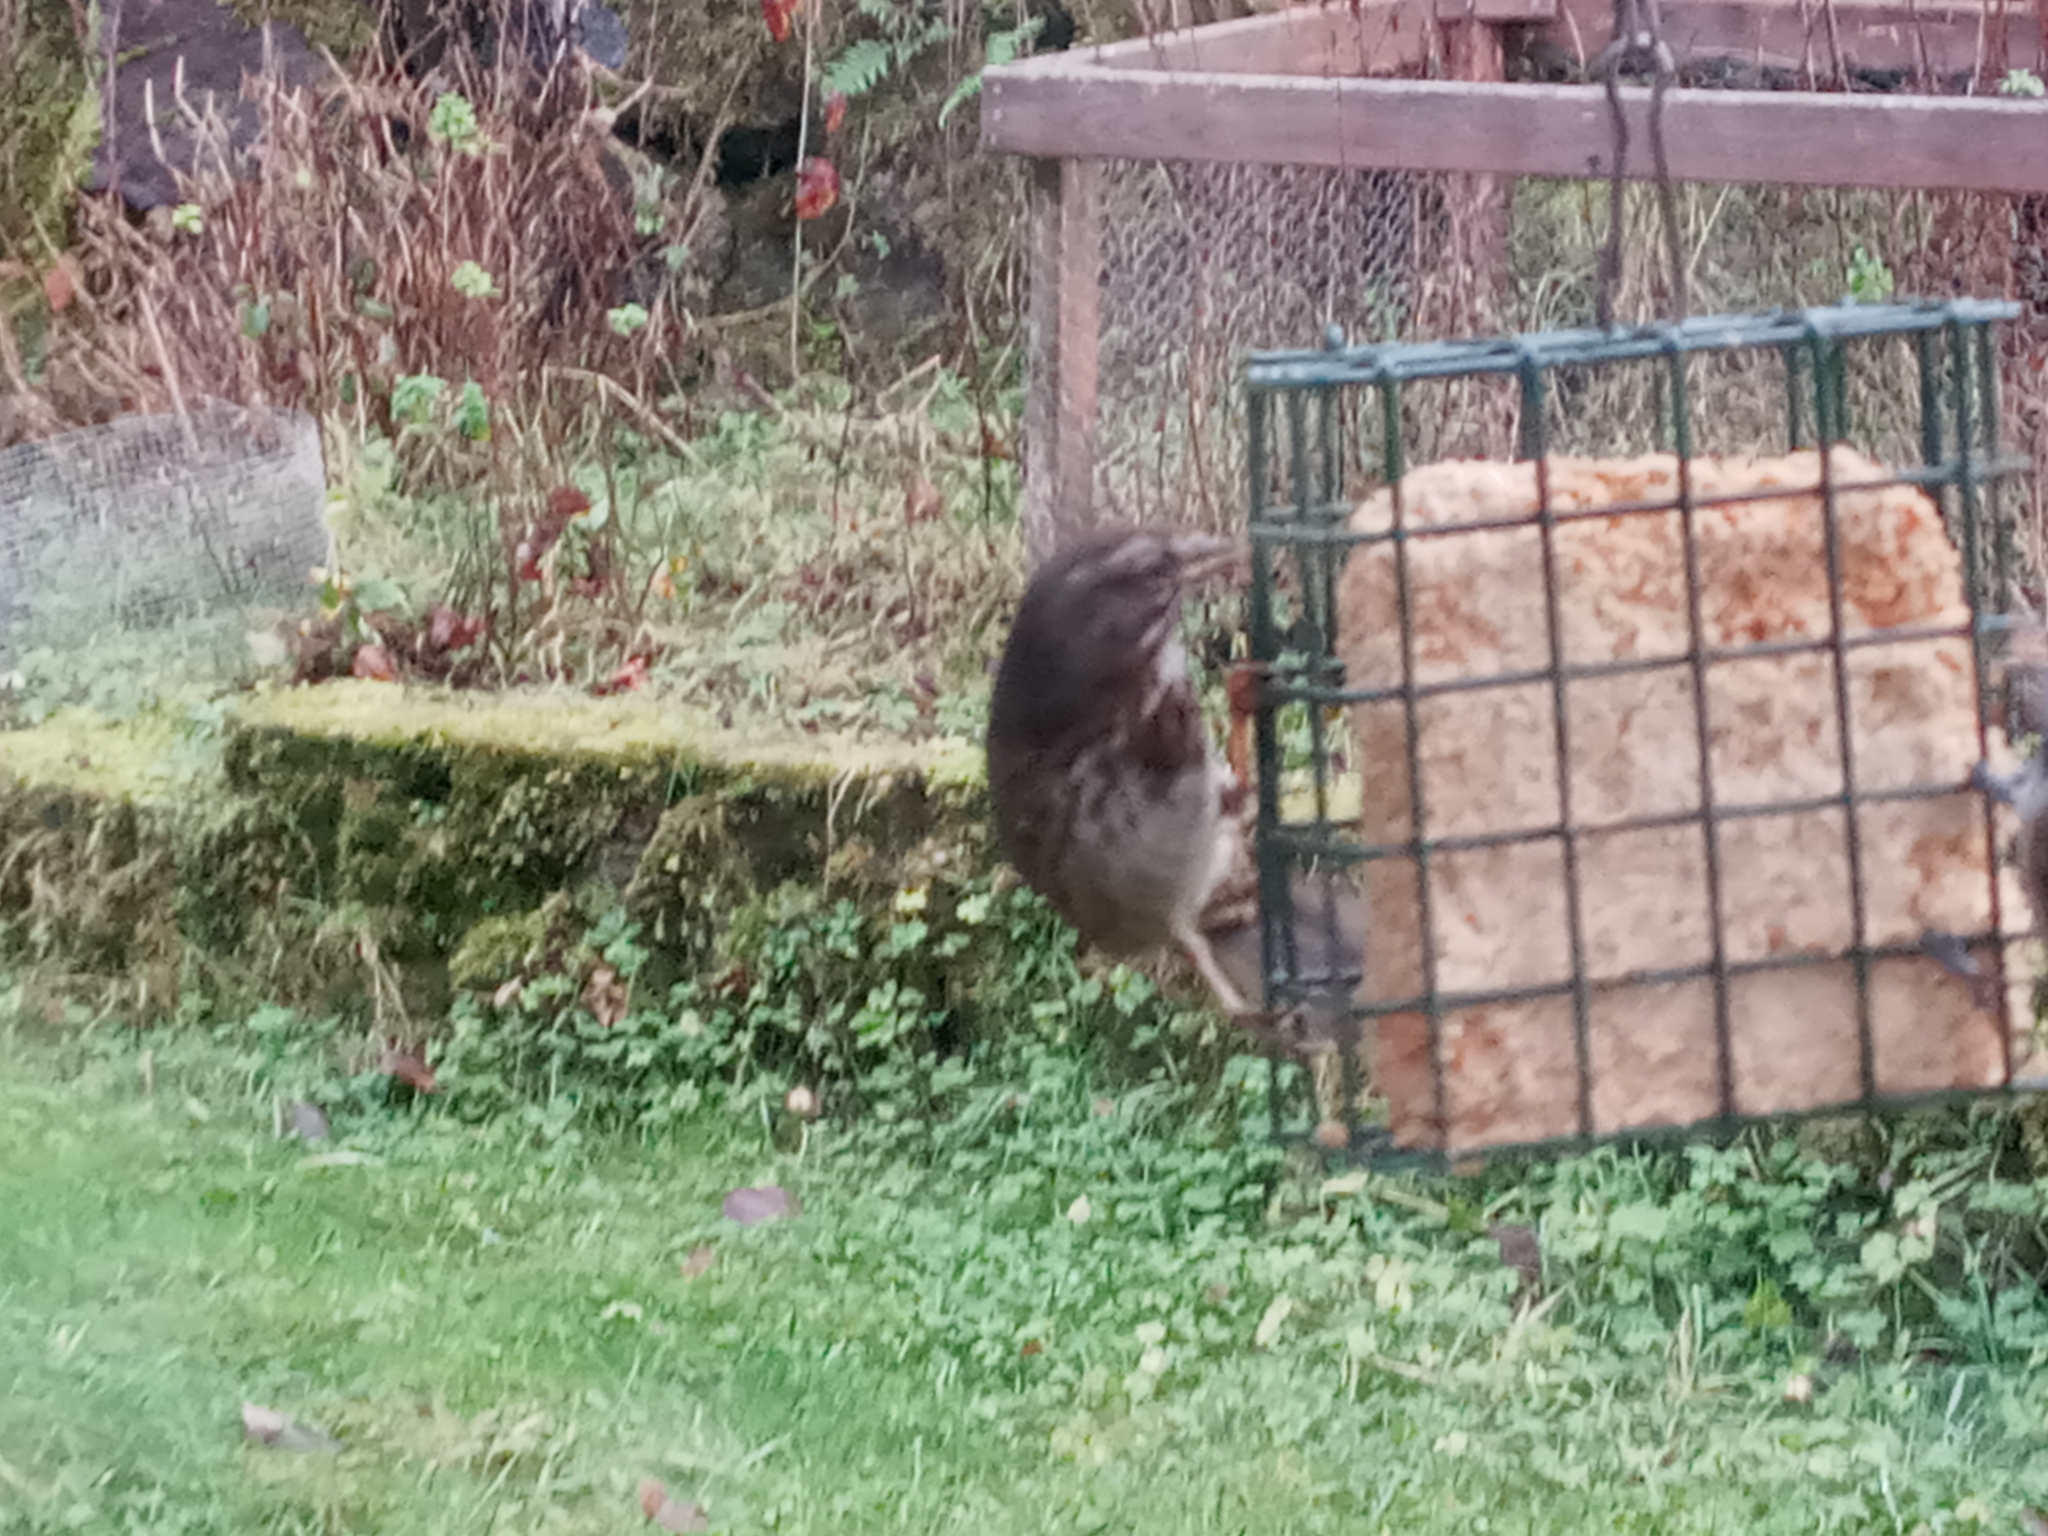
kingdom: Animalia
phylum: Chordata
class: Aves
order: Passeriformes
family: Passerellidae
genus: Melospiza
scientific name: Melospiza melodia
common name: Song sparrow
